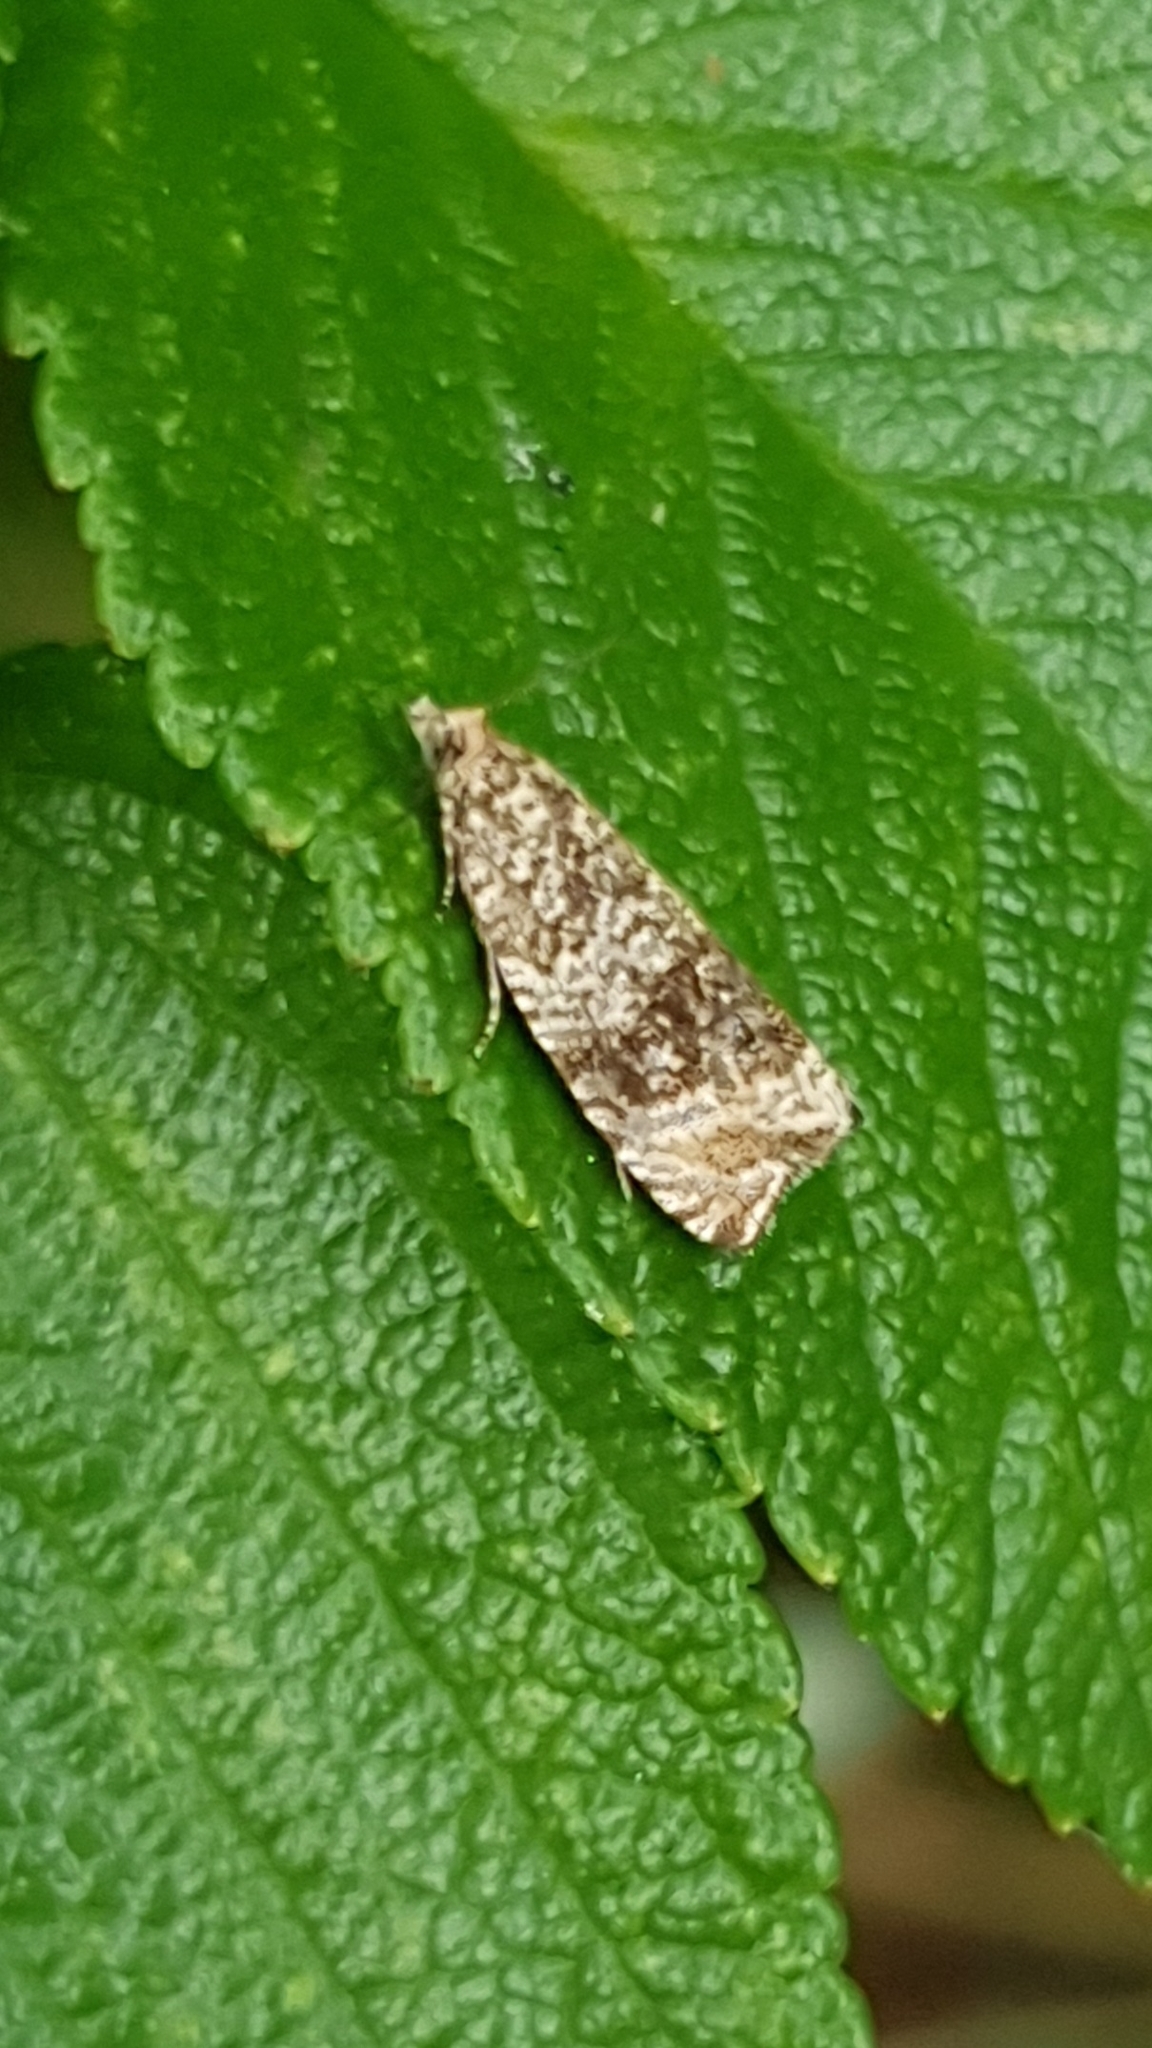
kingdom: Animalia
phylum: Arthropoda
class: Insecta
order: Lepidoptera
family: Tortricidae
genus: Syricoris
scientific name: Syricoris lacunana
